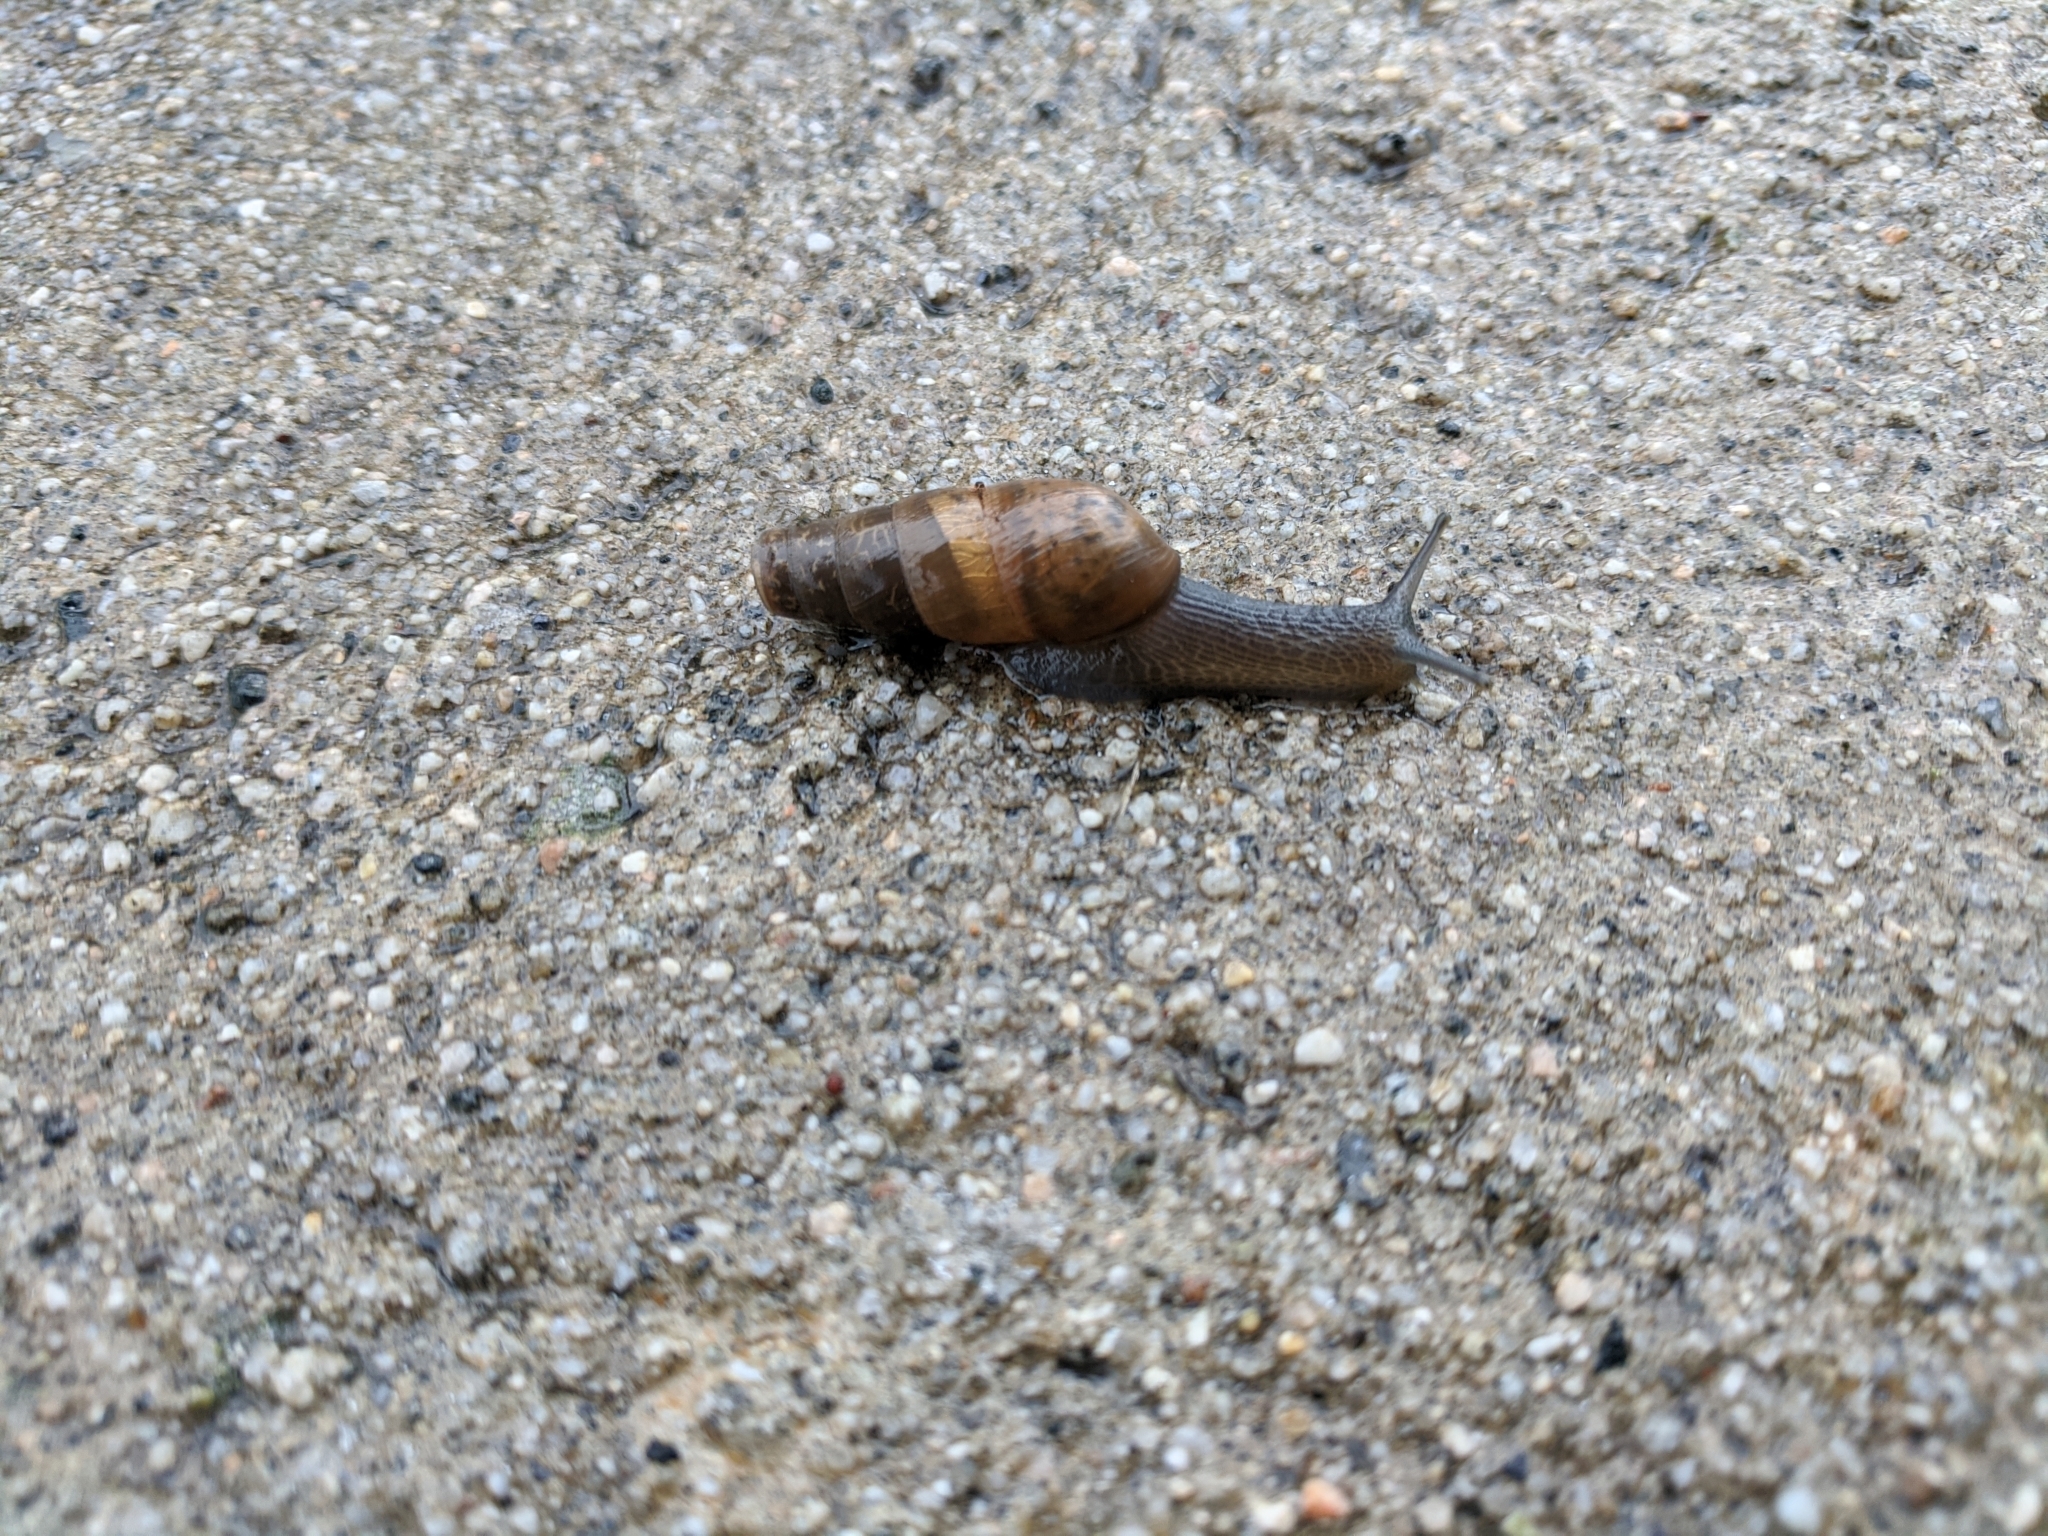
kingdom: Animalia
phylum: Mollusca
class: Gastropoda
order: Stylommatophora
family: Achatinidae
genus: Rumina
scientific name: Rumina decollata
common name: Decollate snail
